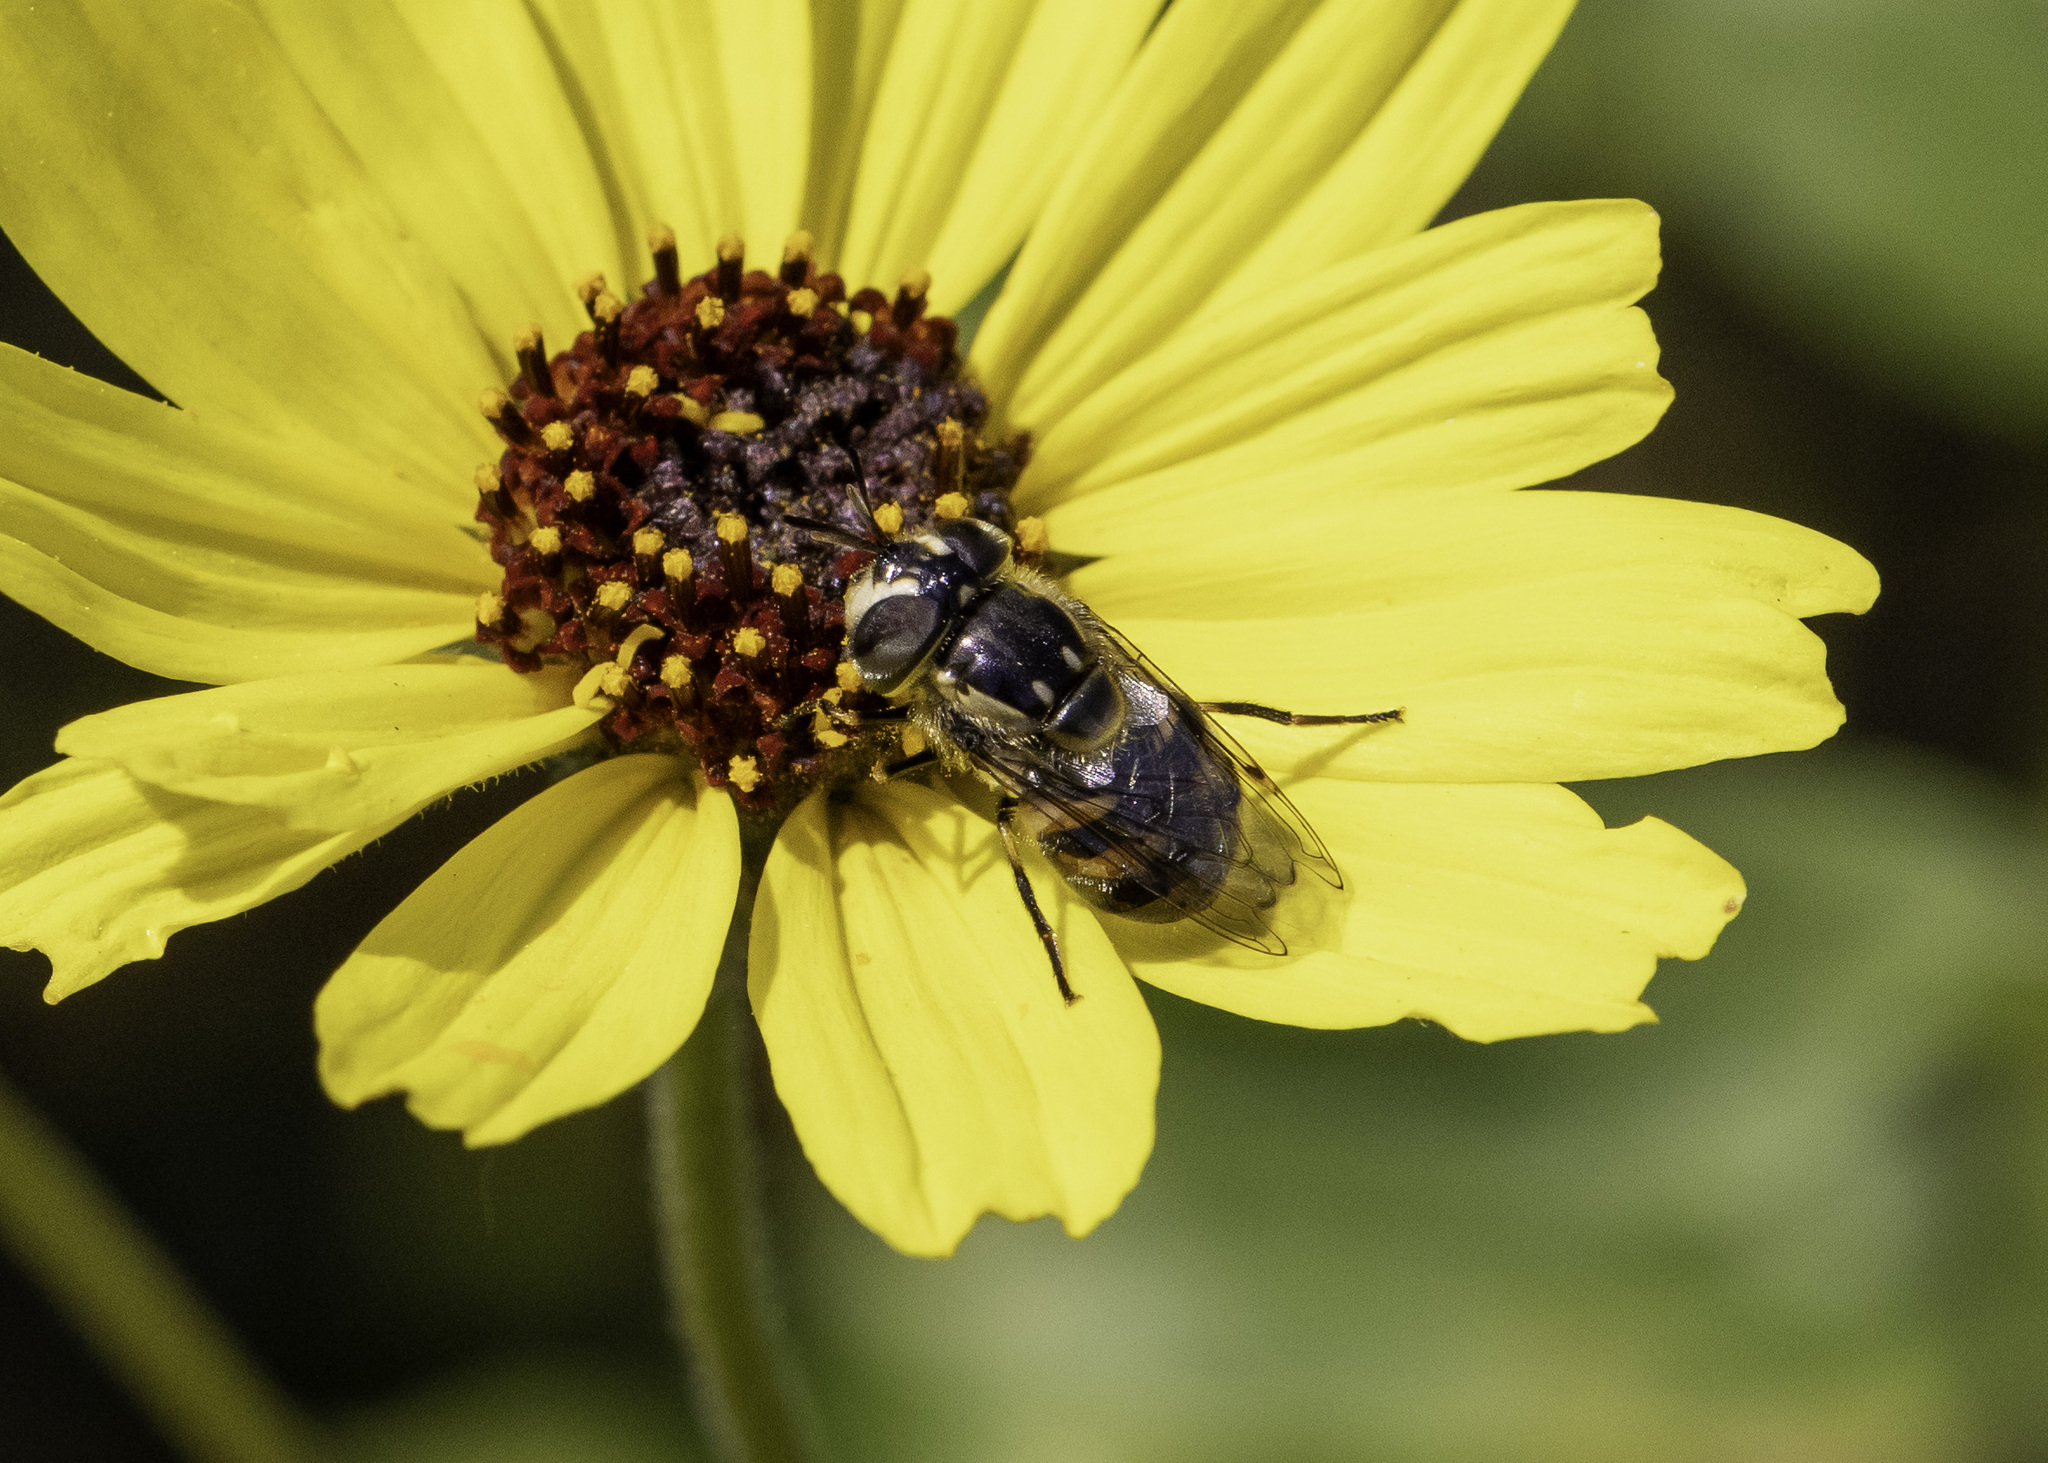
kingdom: Animalia
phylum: Arthropoda
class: Insecta
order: Diptera
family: Syrphidae
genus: Copestylum
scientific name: Copestylum marginatum
